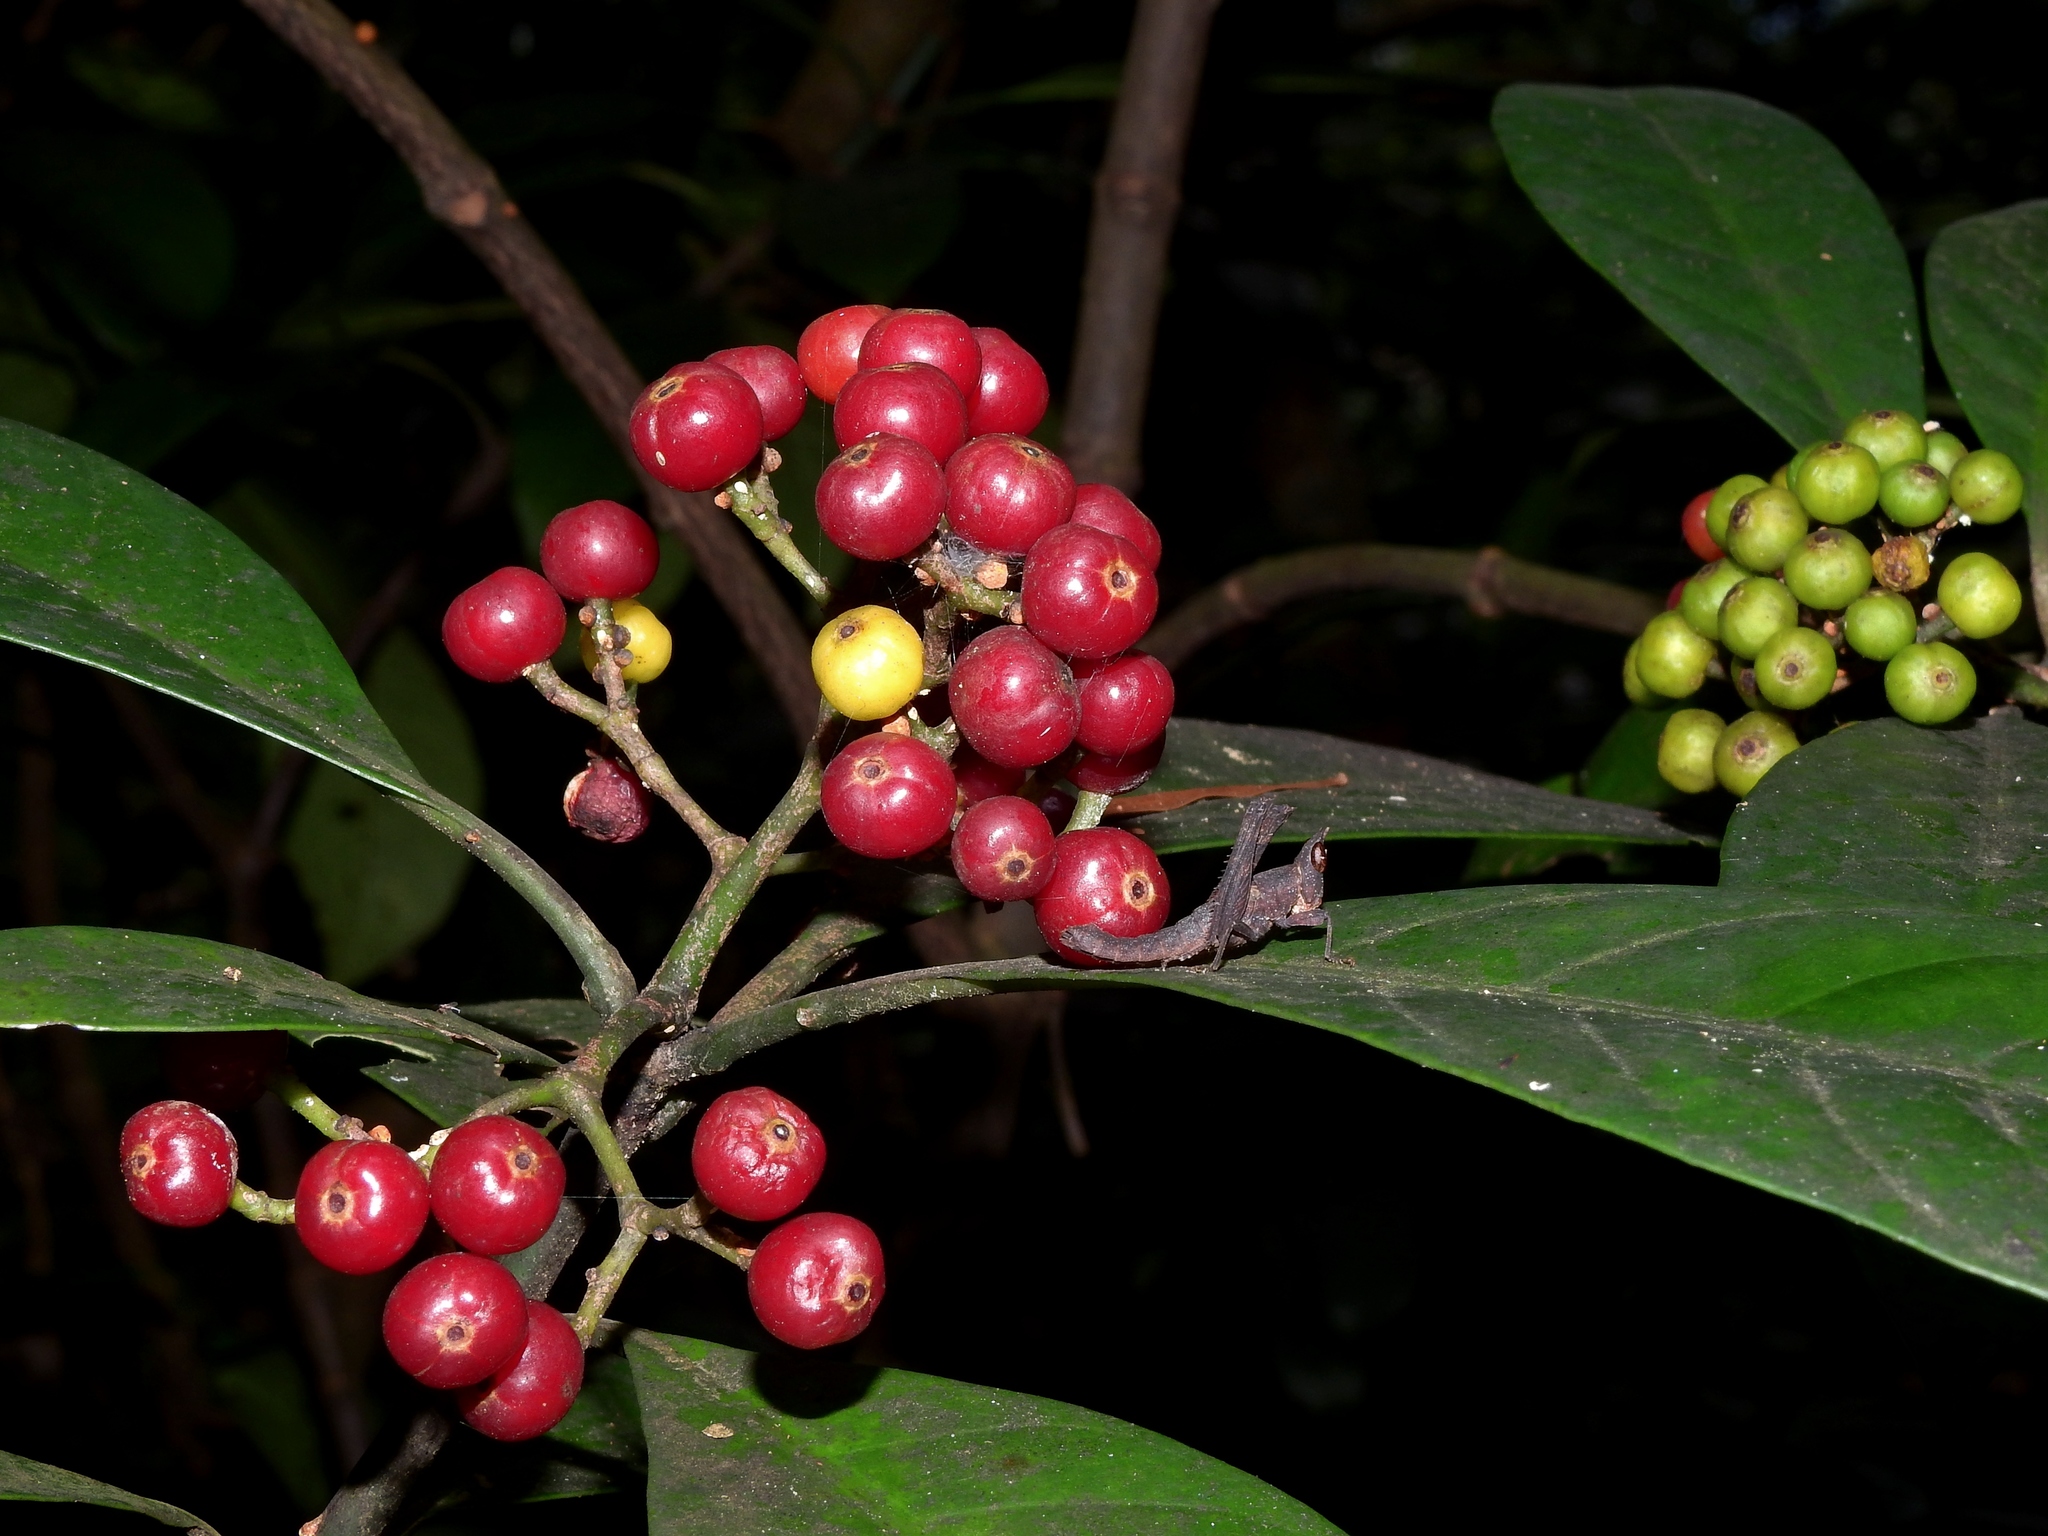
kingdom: Plantae
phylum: Tracheophyta
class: Magnoliopsida
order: Gentianales
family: Rubiaceae
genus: Psychotria
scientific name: Psychotria asiatica
